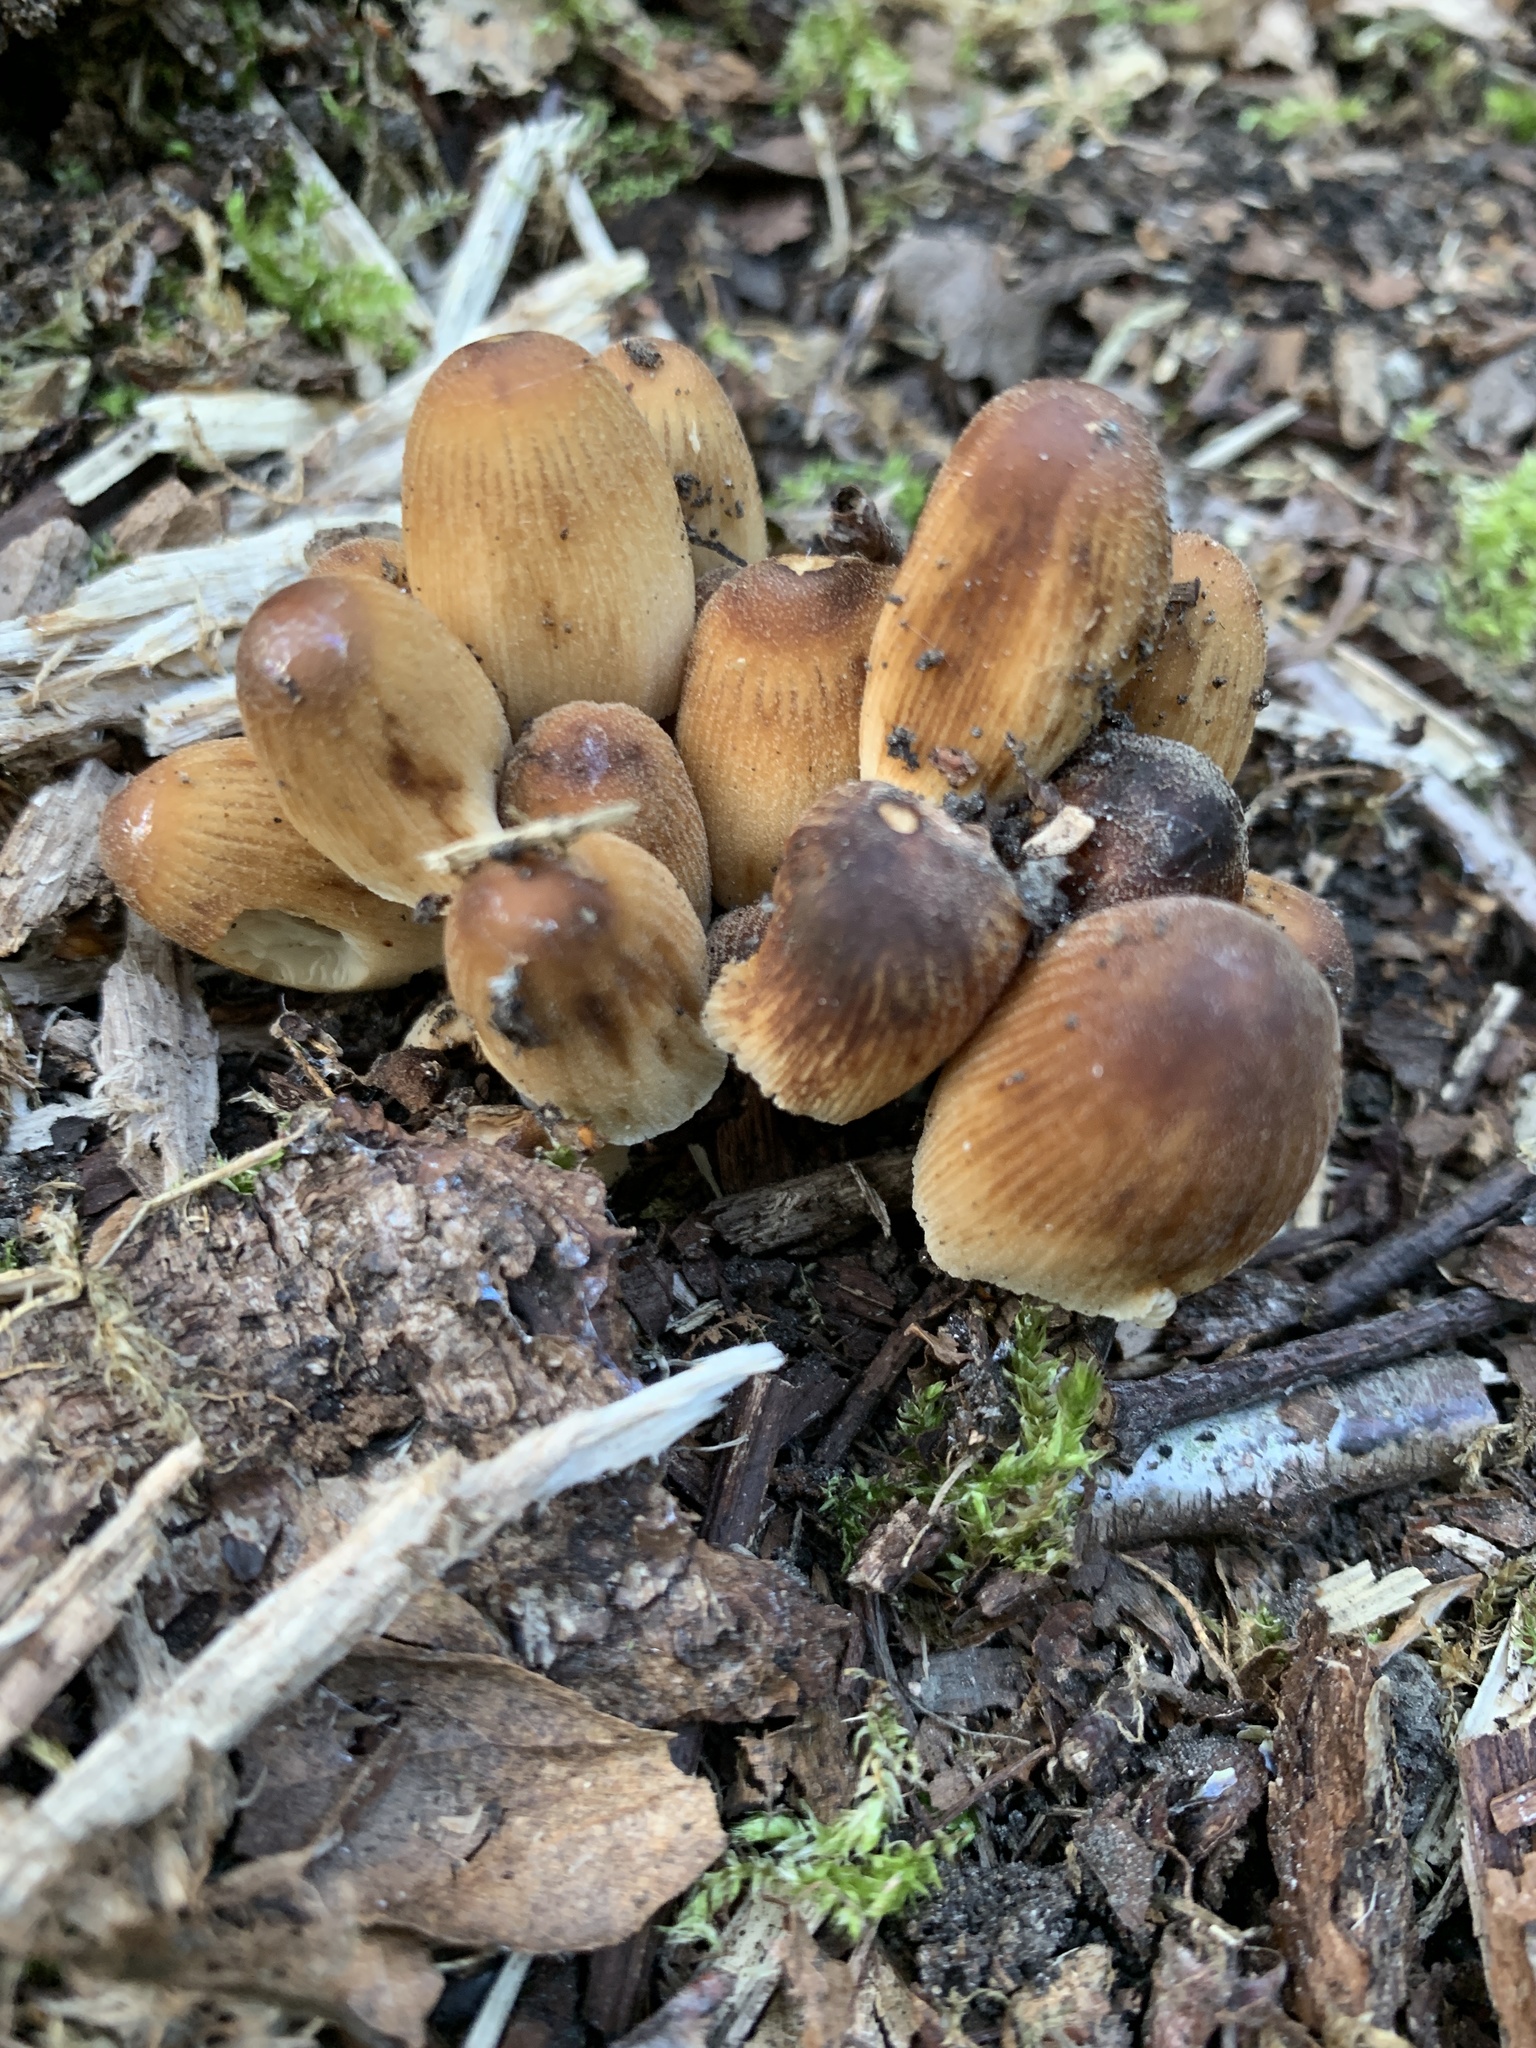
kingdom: Fungi
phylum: Basidiomycota
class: Agaricomycetes
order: Agaricales
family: Psathyrellaceae
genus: Coprinellus
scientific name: Coprinellus micaceus
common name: Glistening ink-cap
